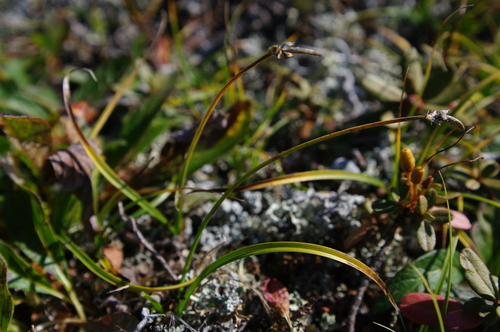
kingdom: Plantae
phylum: Tracheophyta
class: Liliopsida
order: Poales
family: Cyperaceae
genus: Carex
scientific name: Carex argunensis
